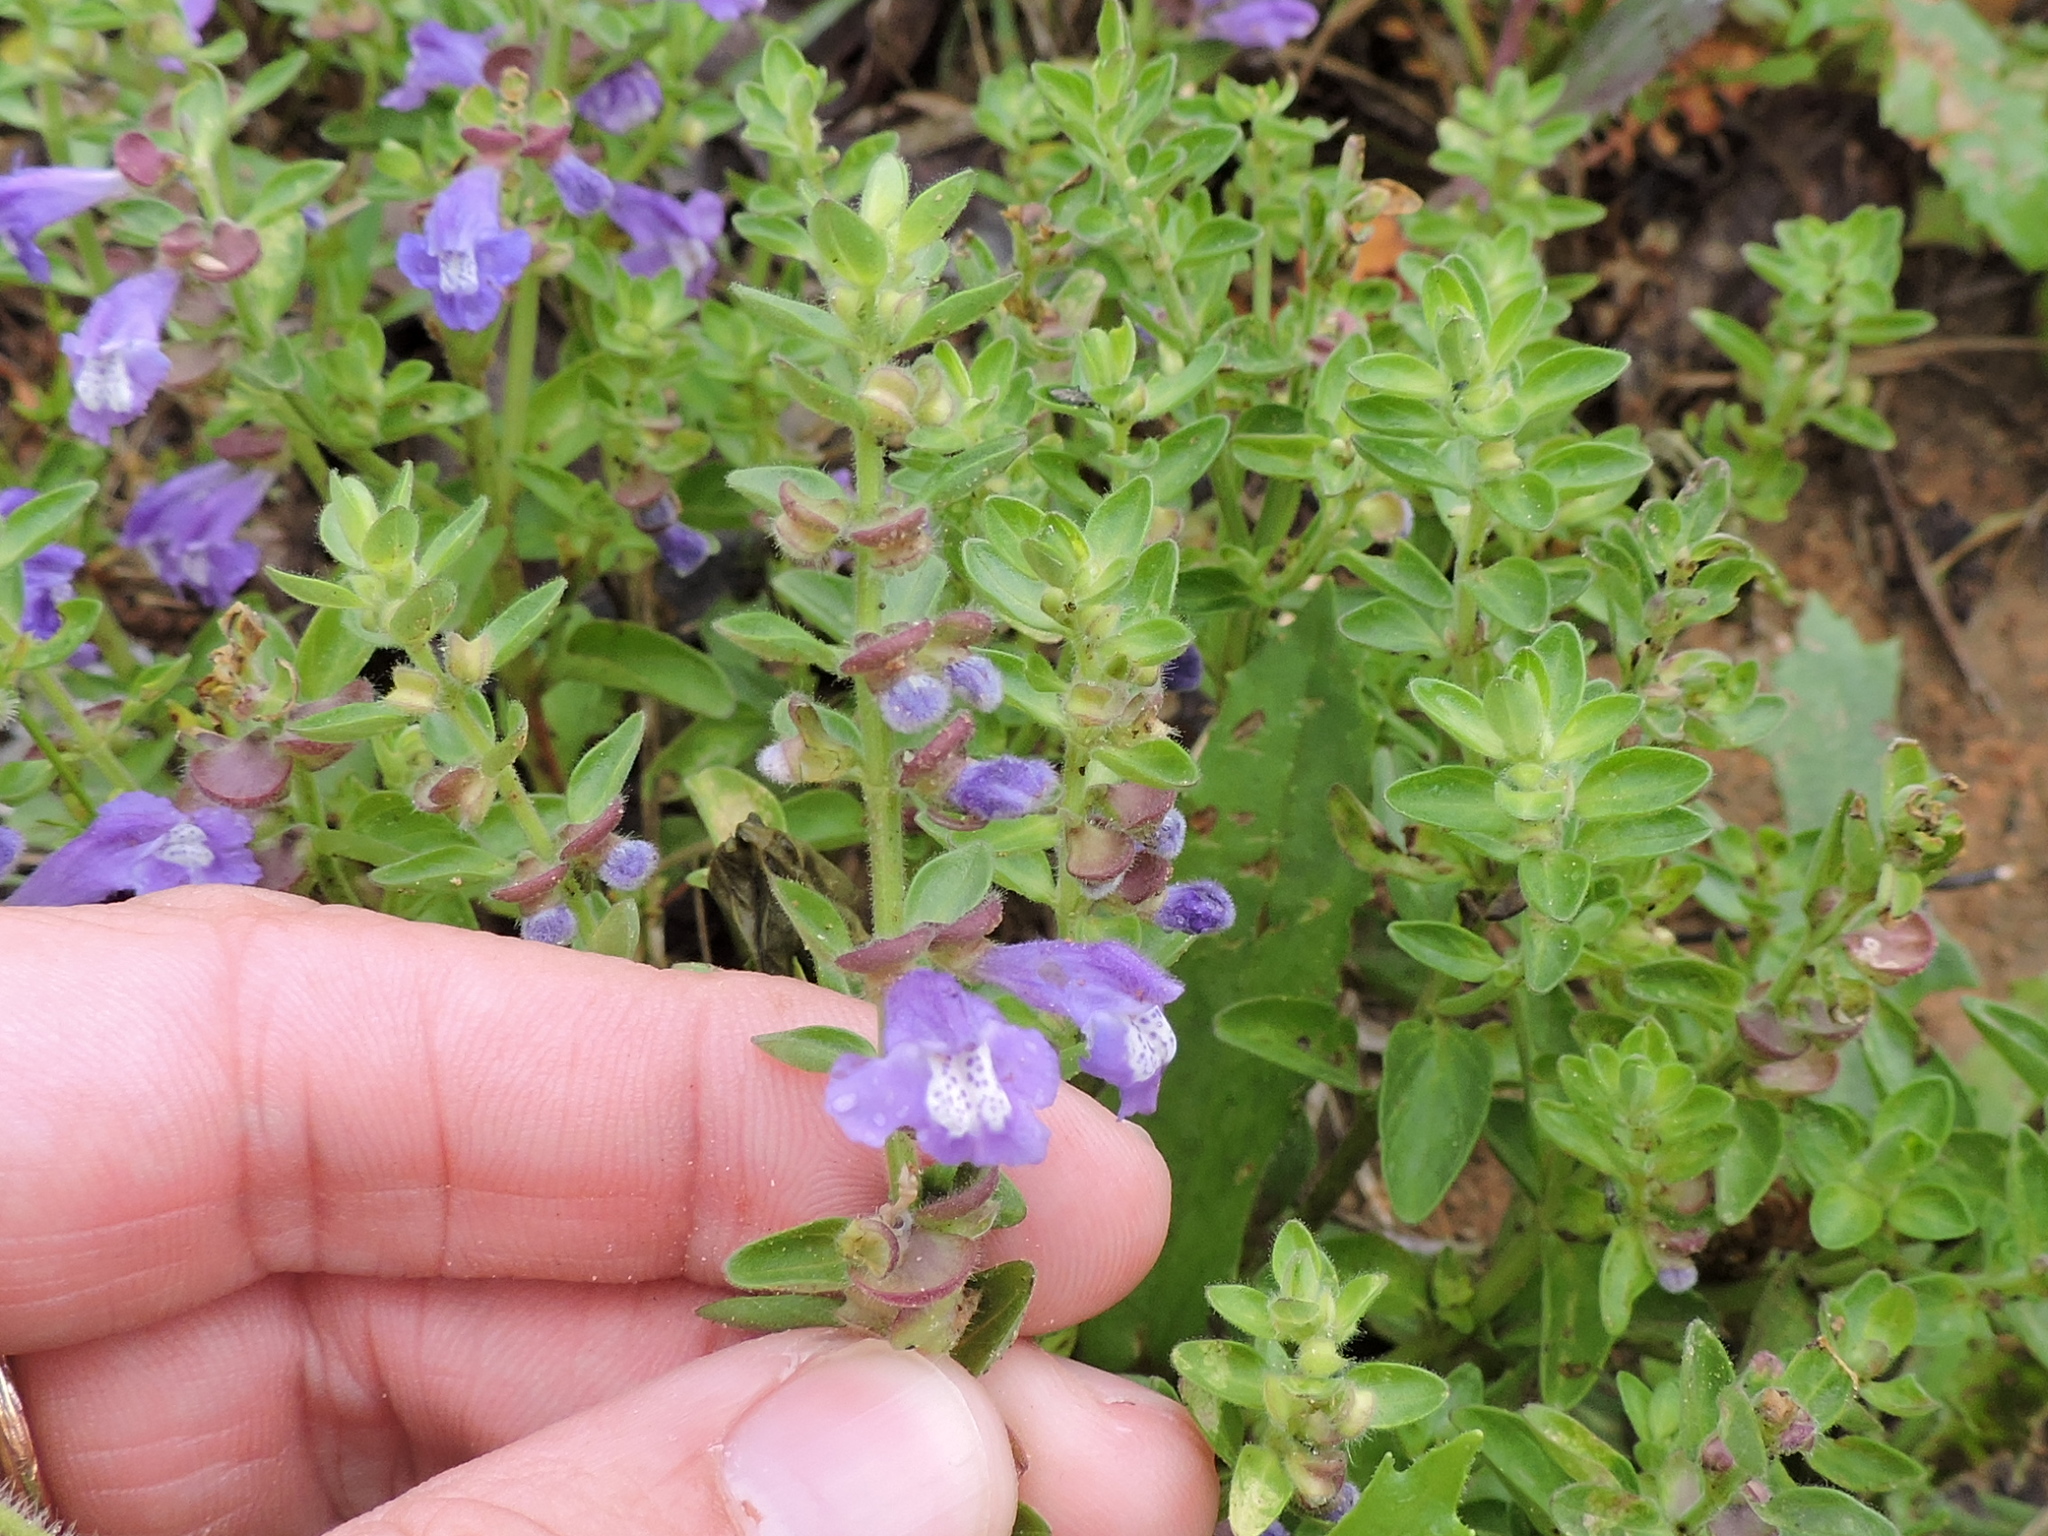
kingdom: Plantae
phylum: Tracheophyta
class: Magnoliopsida
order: Lamiales
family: Lamiaceae
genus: Scutellaria
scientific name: Scutellaria drummondii
